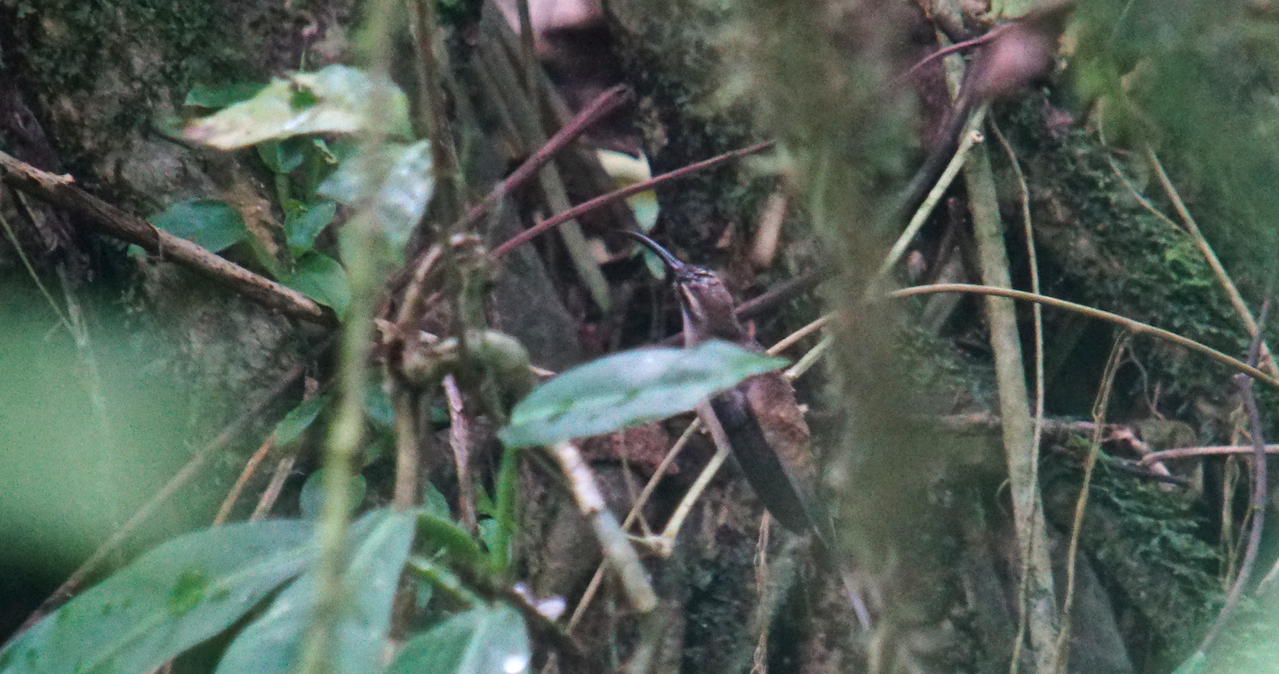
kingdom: Animalia
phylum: Chordata
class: Aves
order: Apodiformes
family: Trochilidae
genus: Phaethornis
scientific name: Phaethornis longirostris
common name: Long-billed hermit
